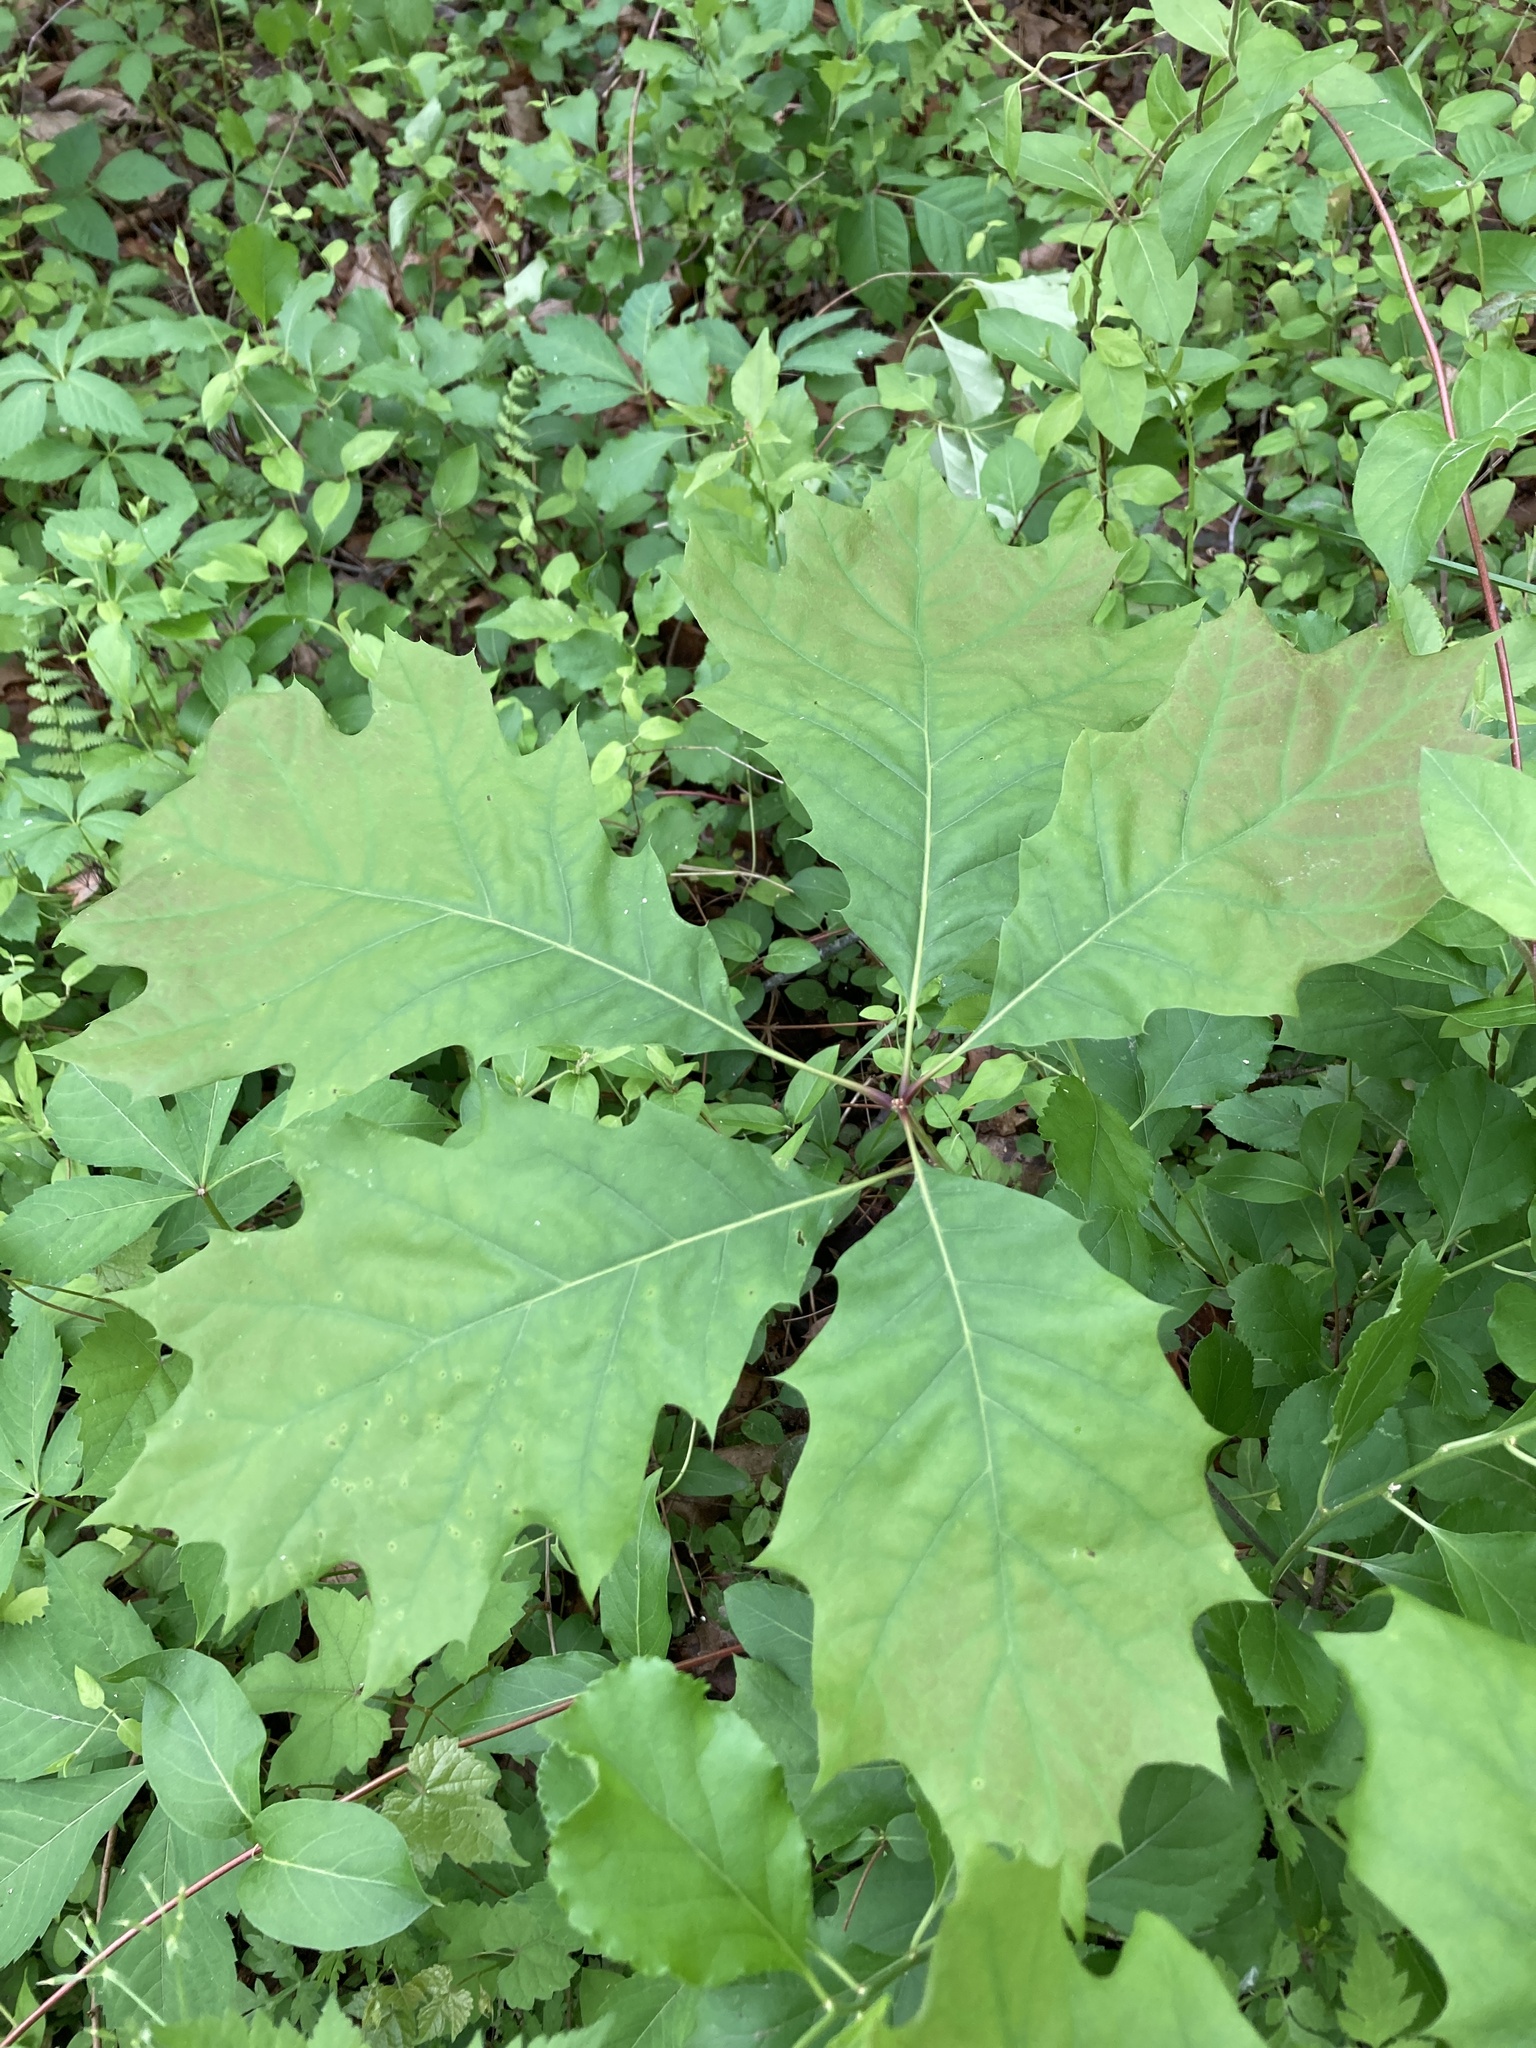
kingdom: Plantae
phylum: Tracheophyta
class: Magnoliopsida
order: Fagales
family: Fagaceae
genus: Quercus
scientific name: Quercus rubra
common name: Red oak
